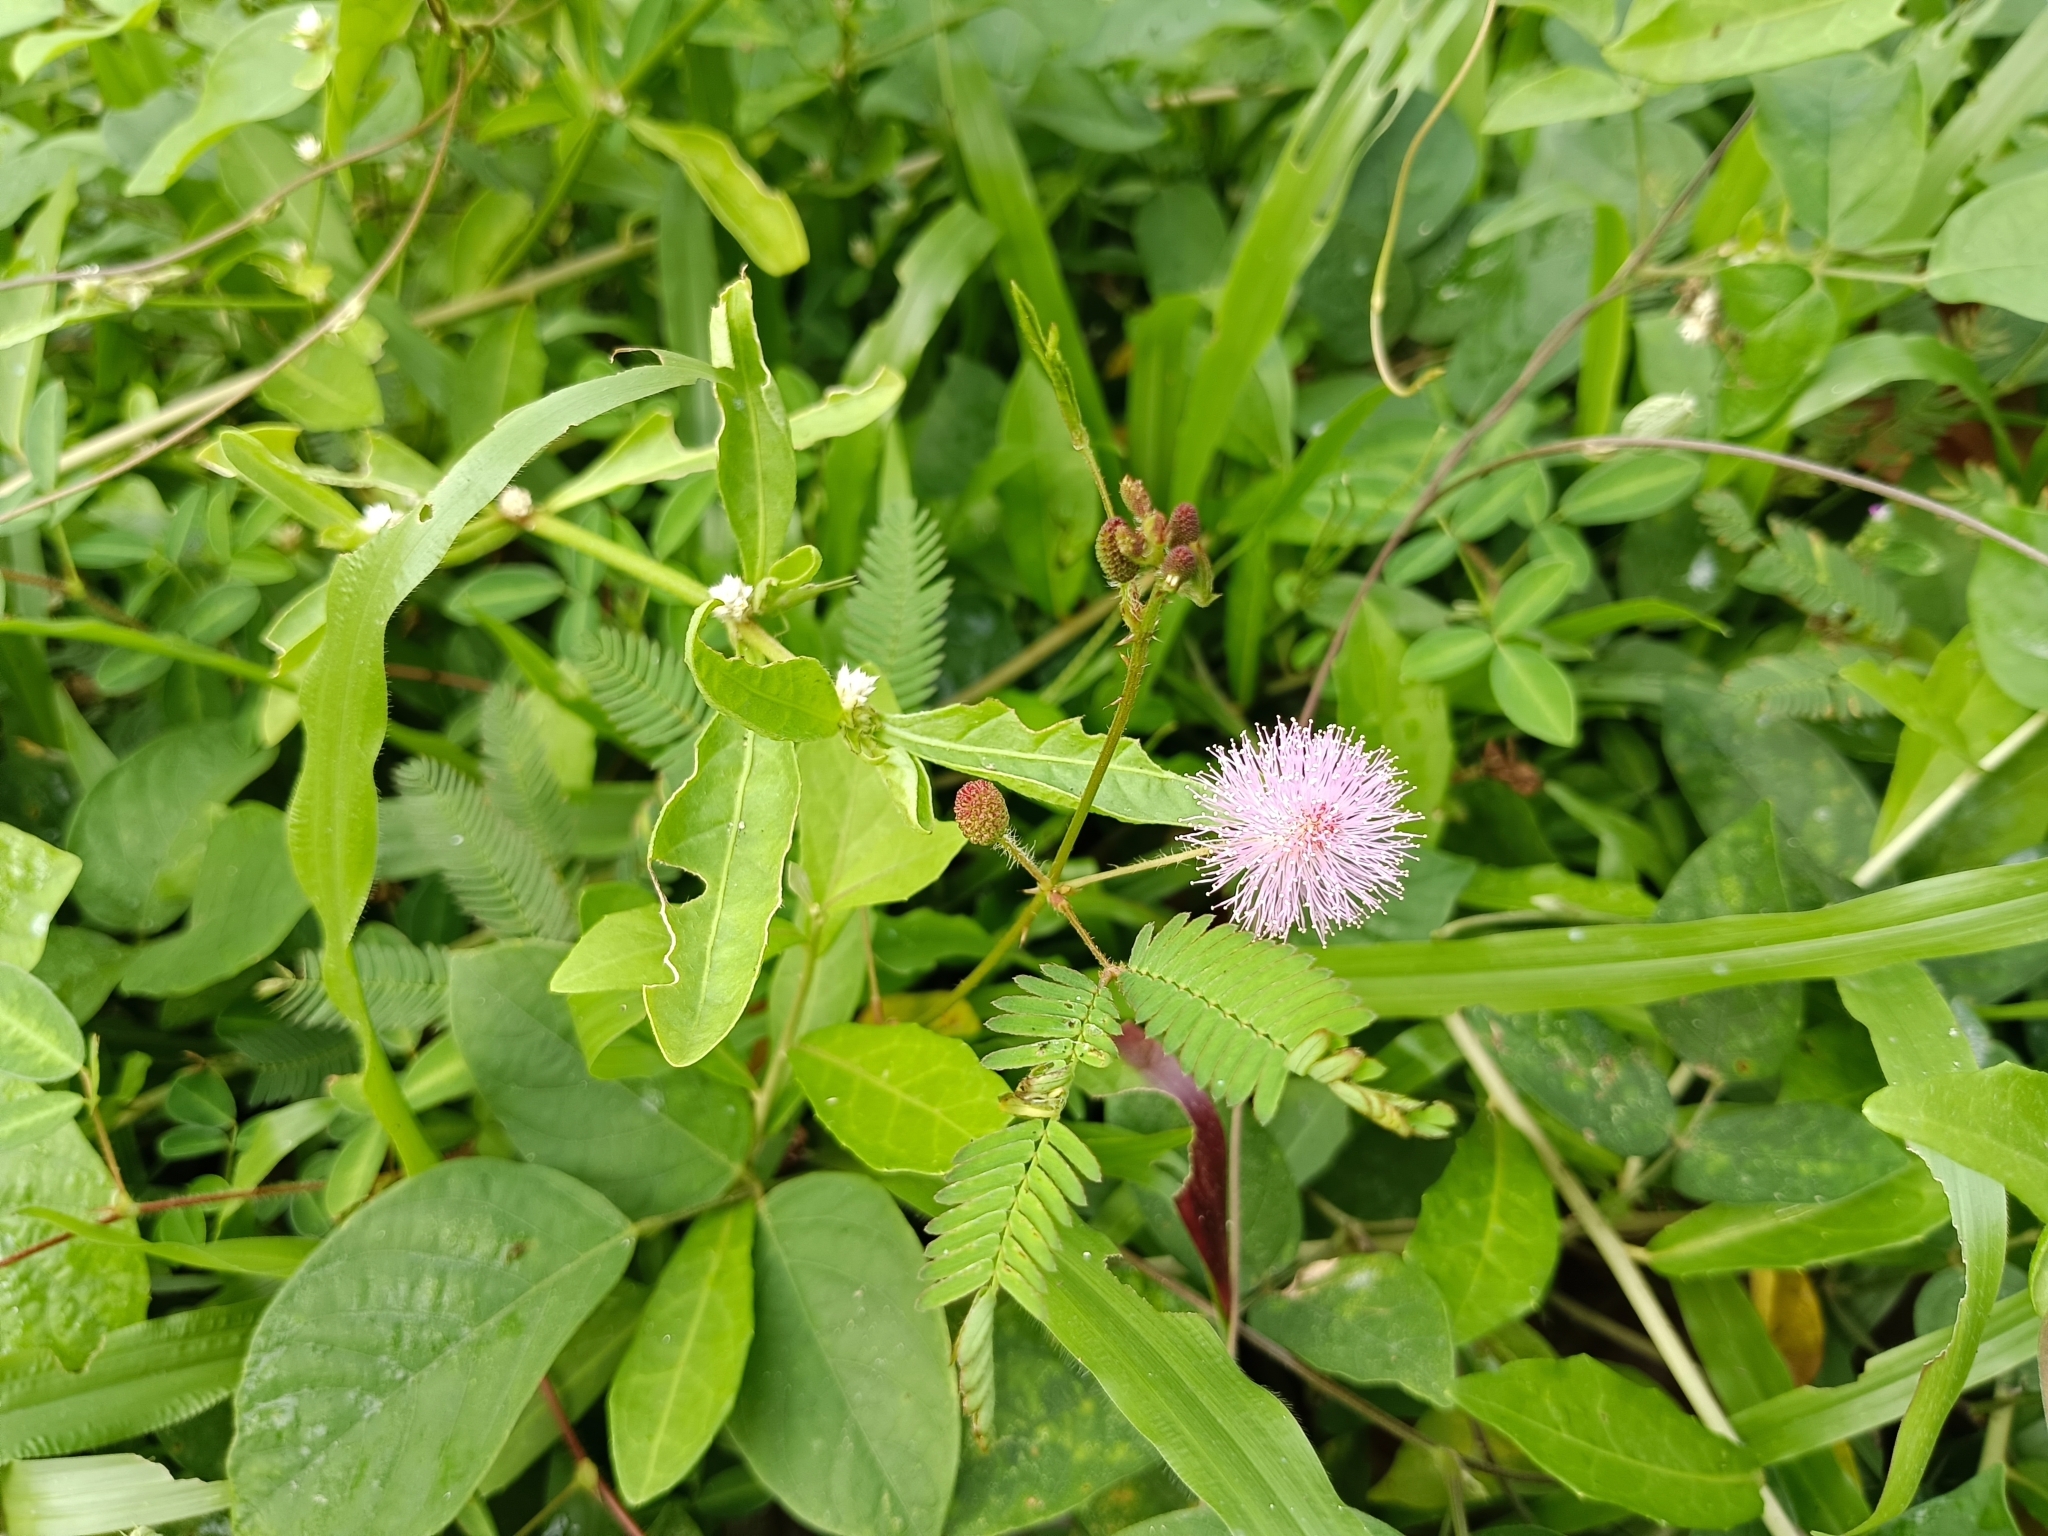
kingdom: Plantae
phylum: Tracheophyta
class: Magnoliopsida
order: Fabales
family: Fabaceae
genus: Mimosa
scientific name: Mimosa pudica
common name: Sensitive plant
